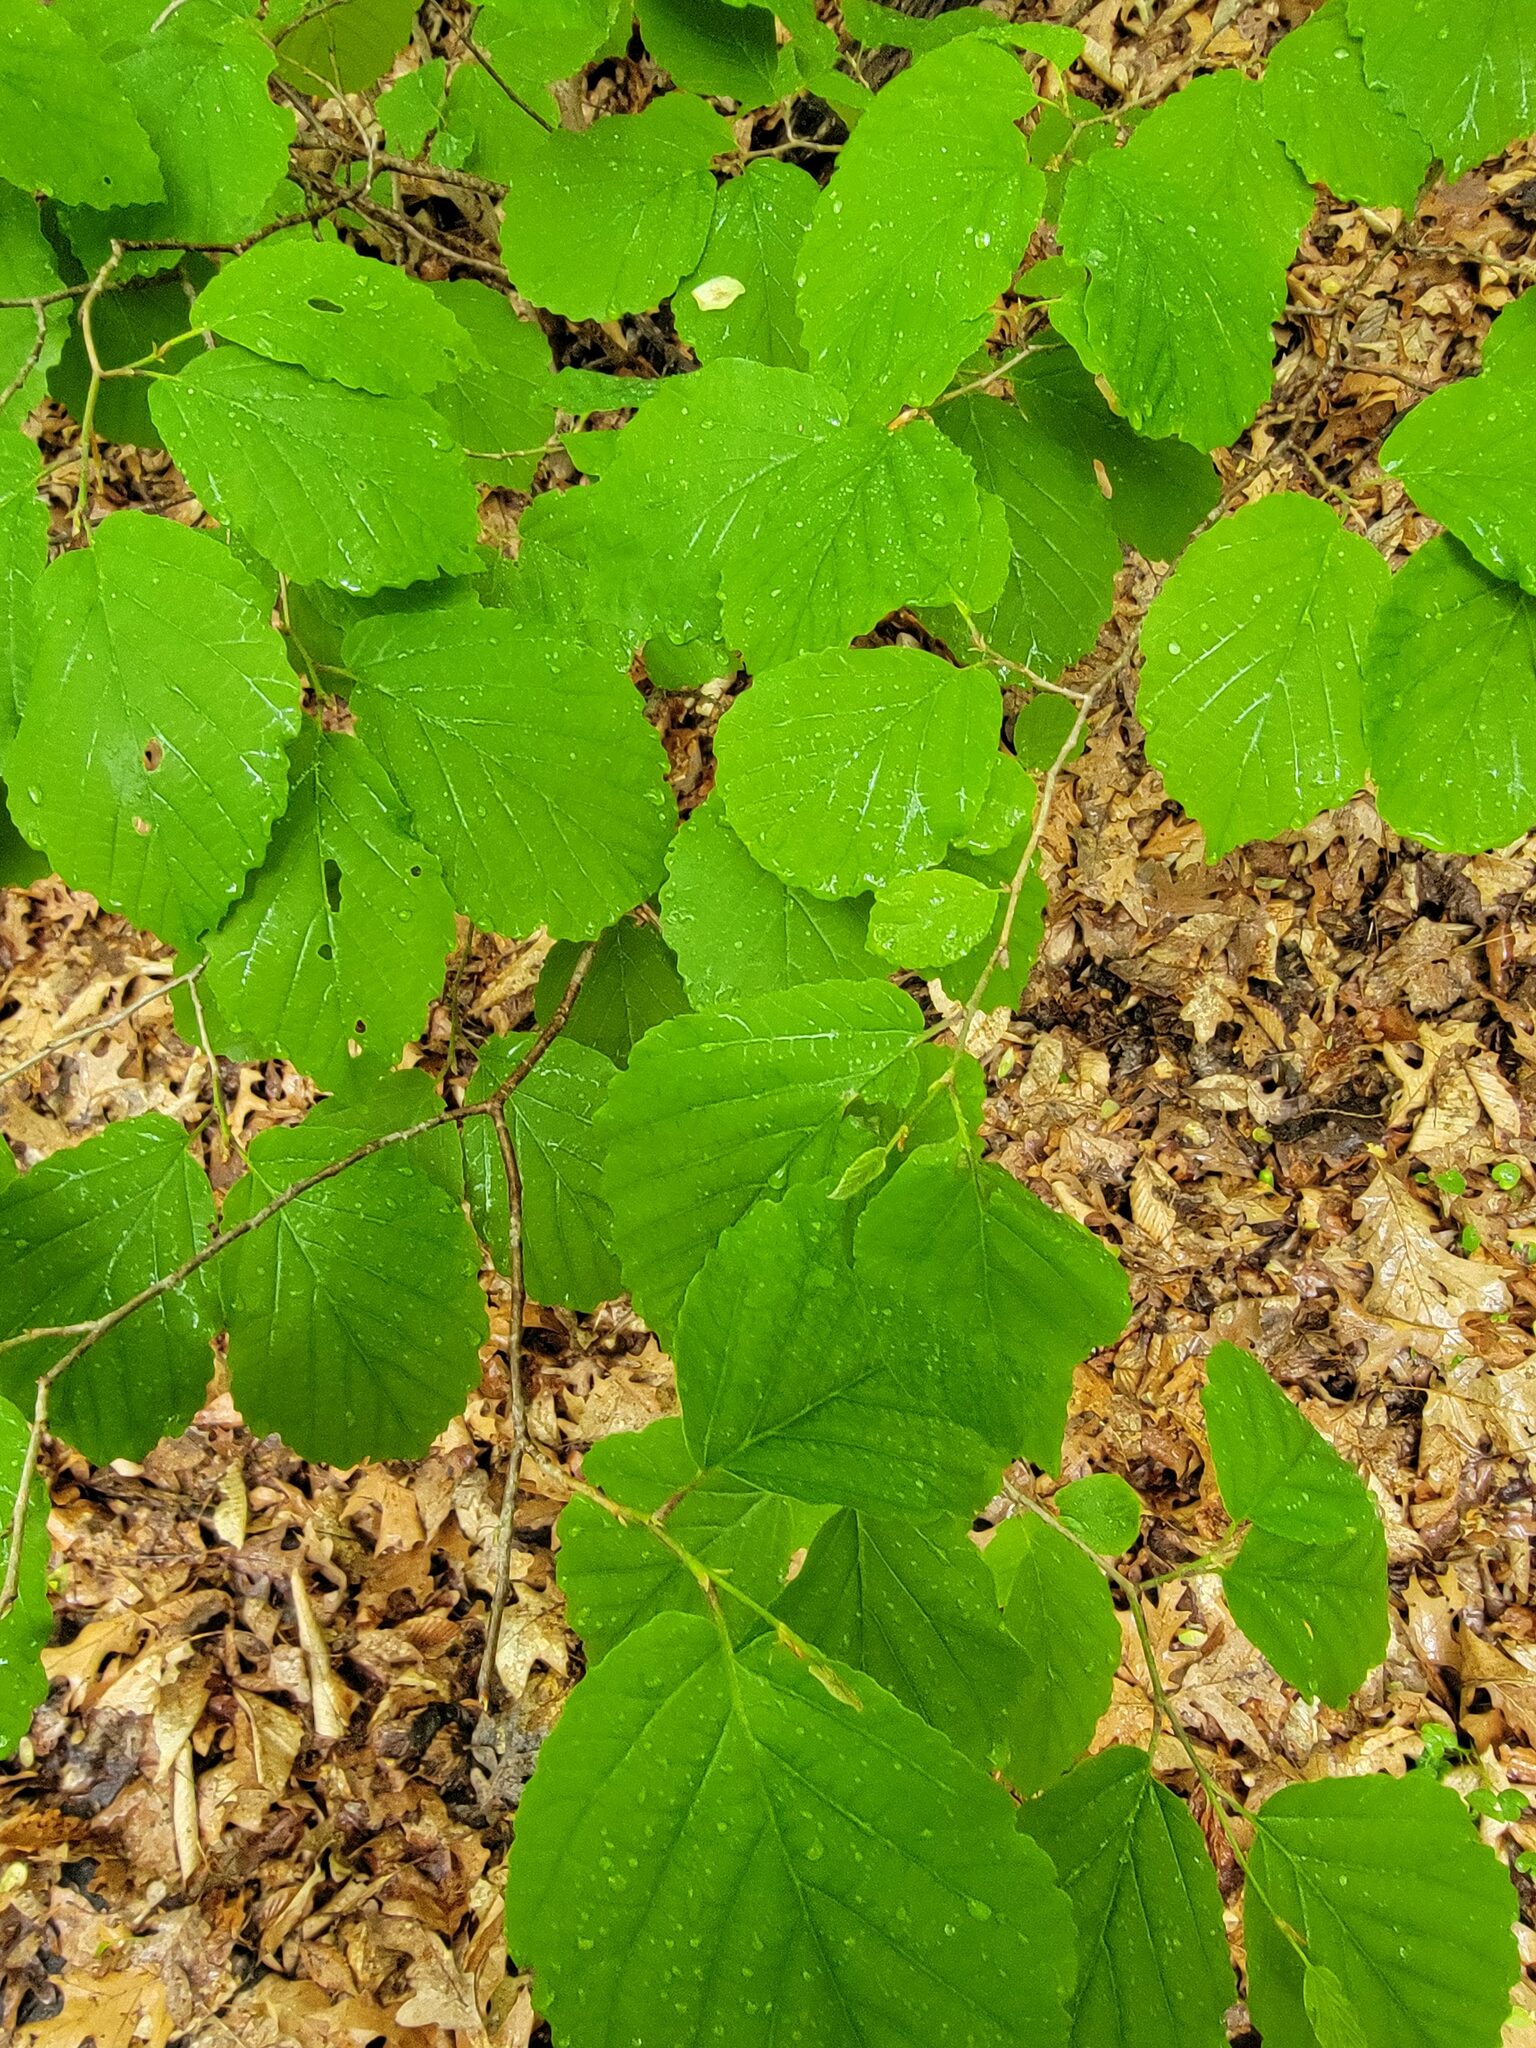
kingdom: Plantae
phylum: Tracheophyta
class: Magnoliopsida
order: Saxifragales
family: Hamamelidaceae
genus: Hamamelis
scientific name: Hamamelis virginiana
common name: Witch-hazel
